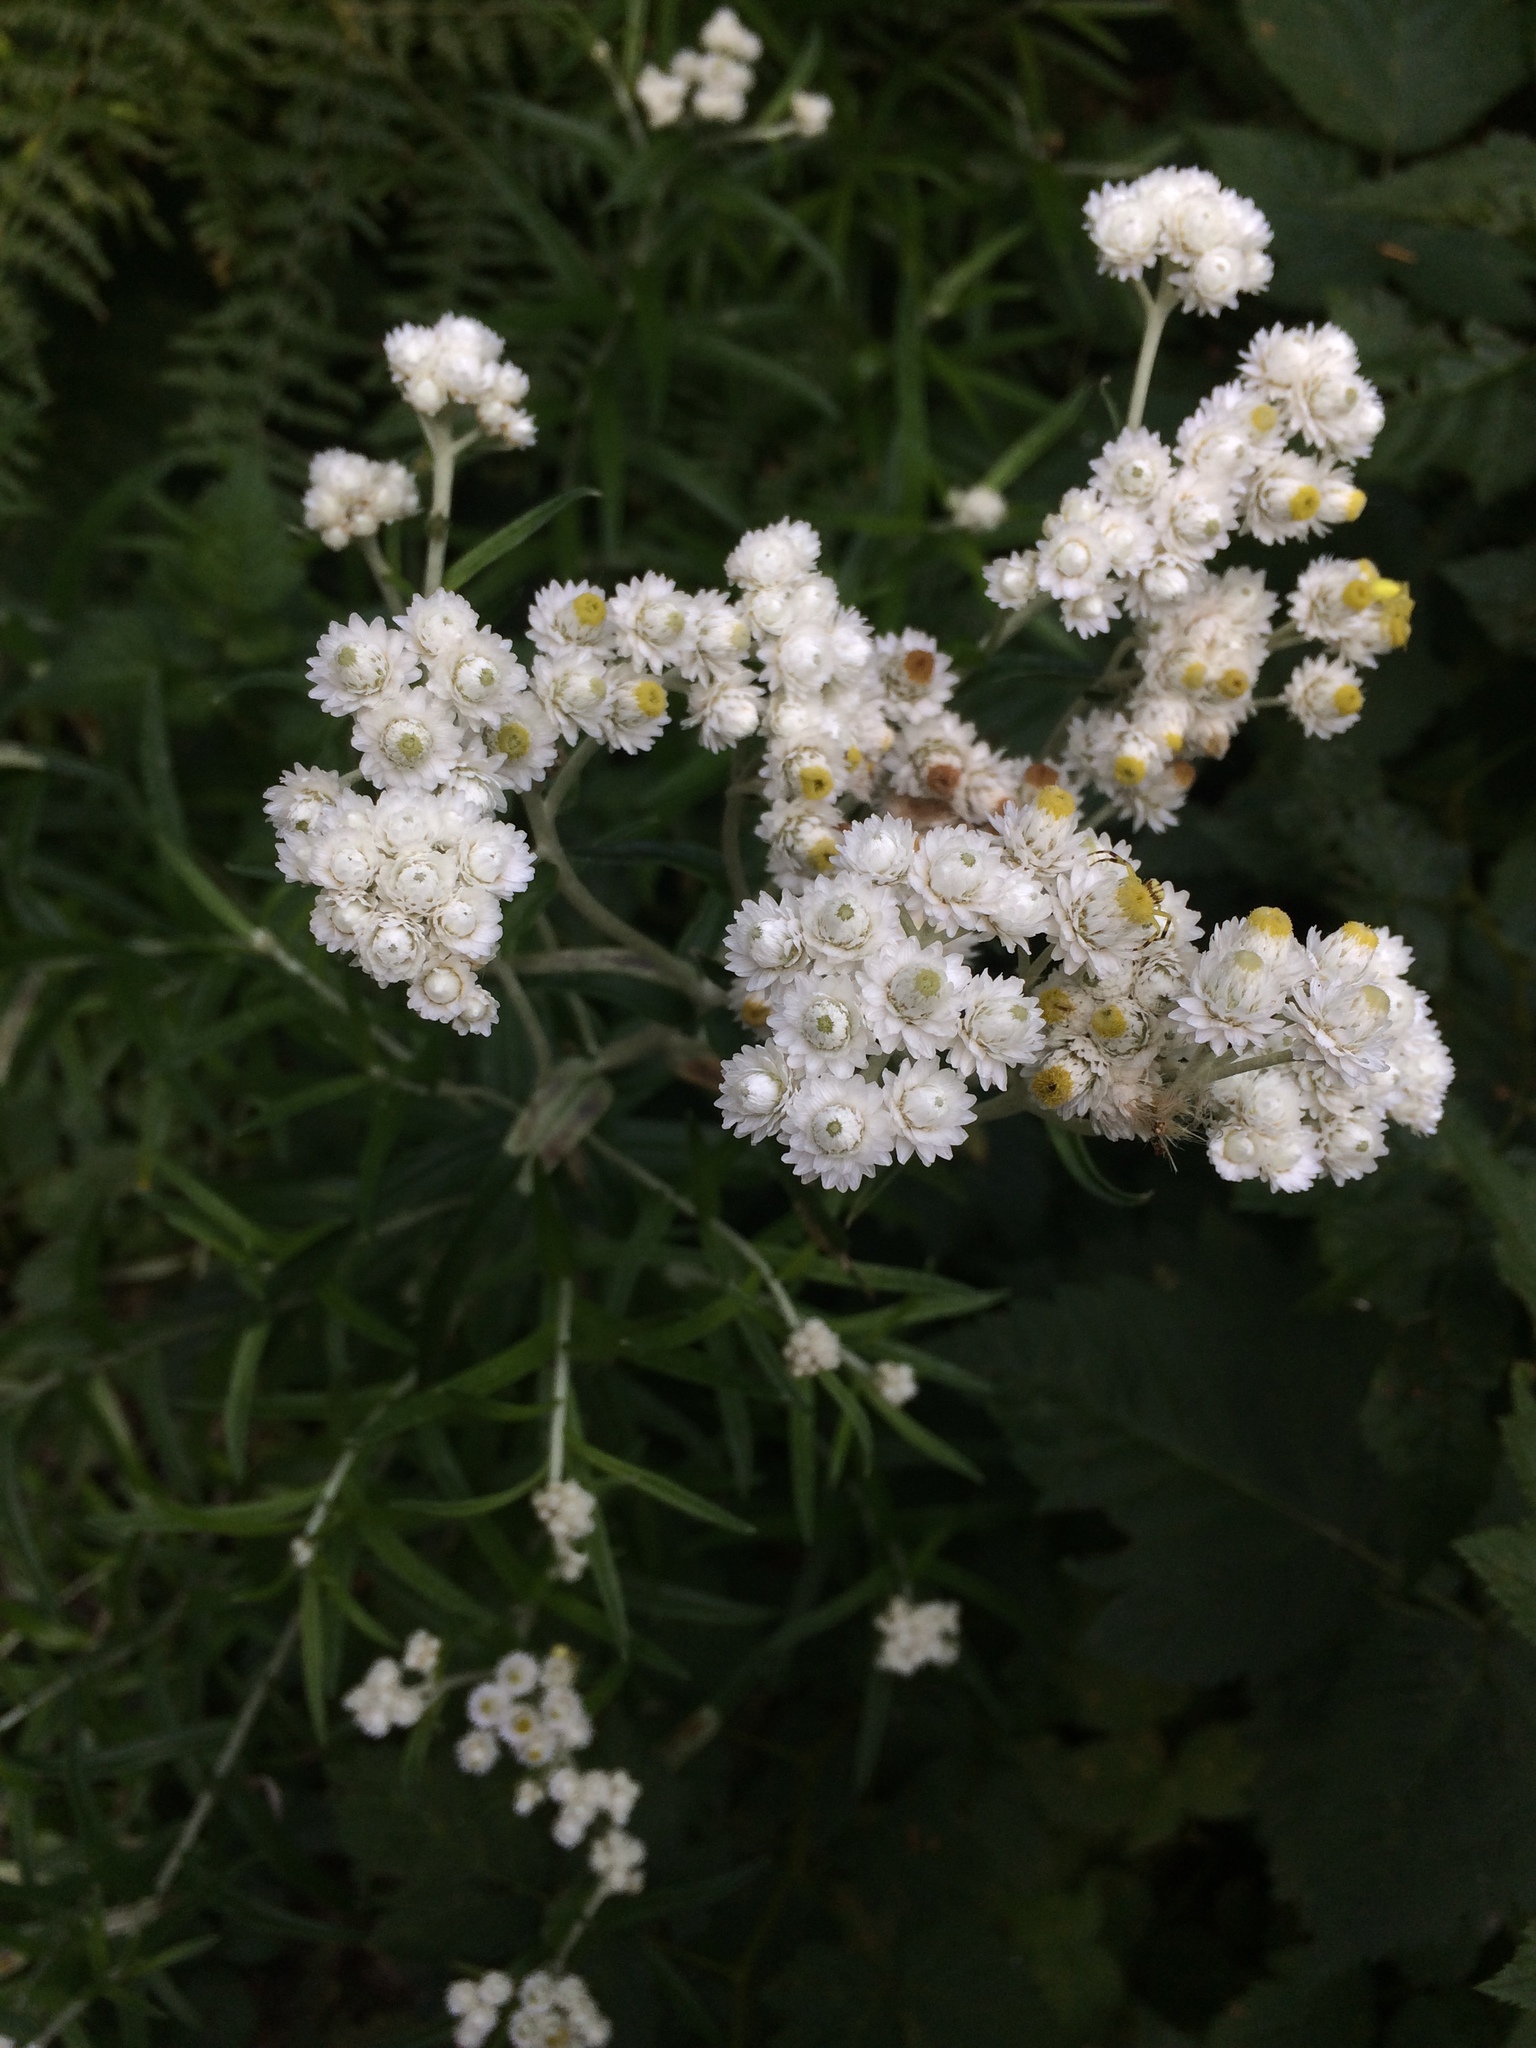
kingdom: Plantae
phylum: Tracheophyta
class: Magnoliopsida
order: Asterales
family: Asteraceae
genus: Anaphalis
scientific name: Anaphalis margaritacea
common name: Pearly everlasting
